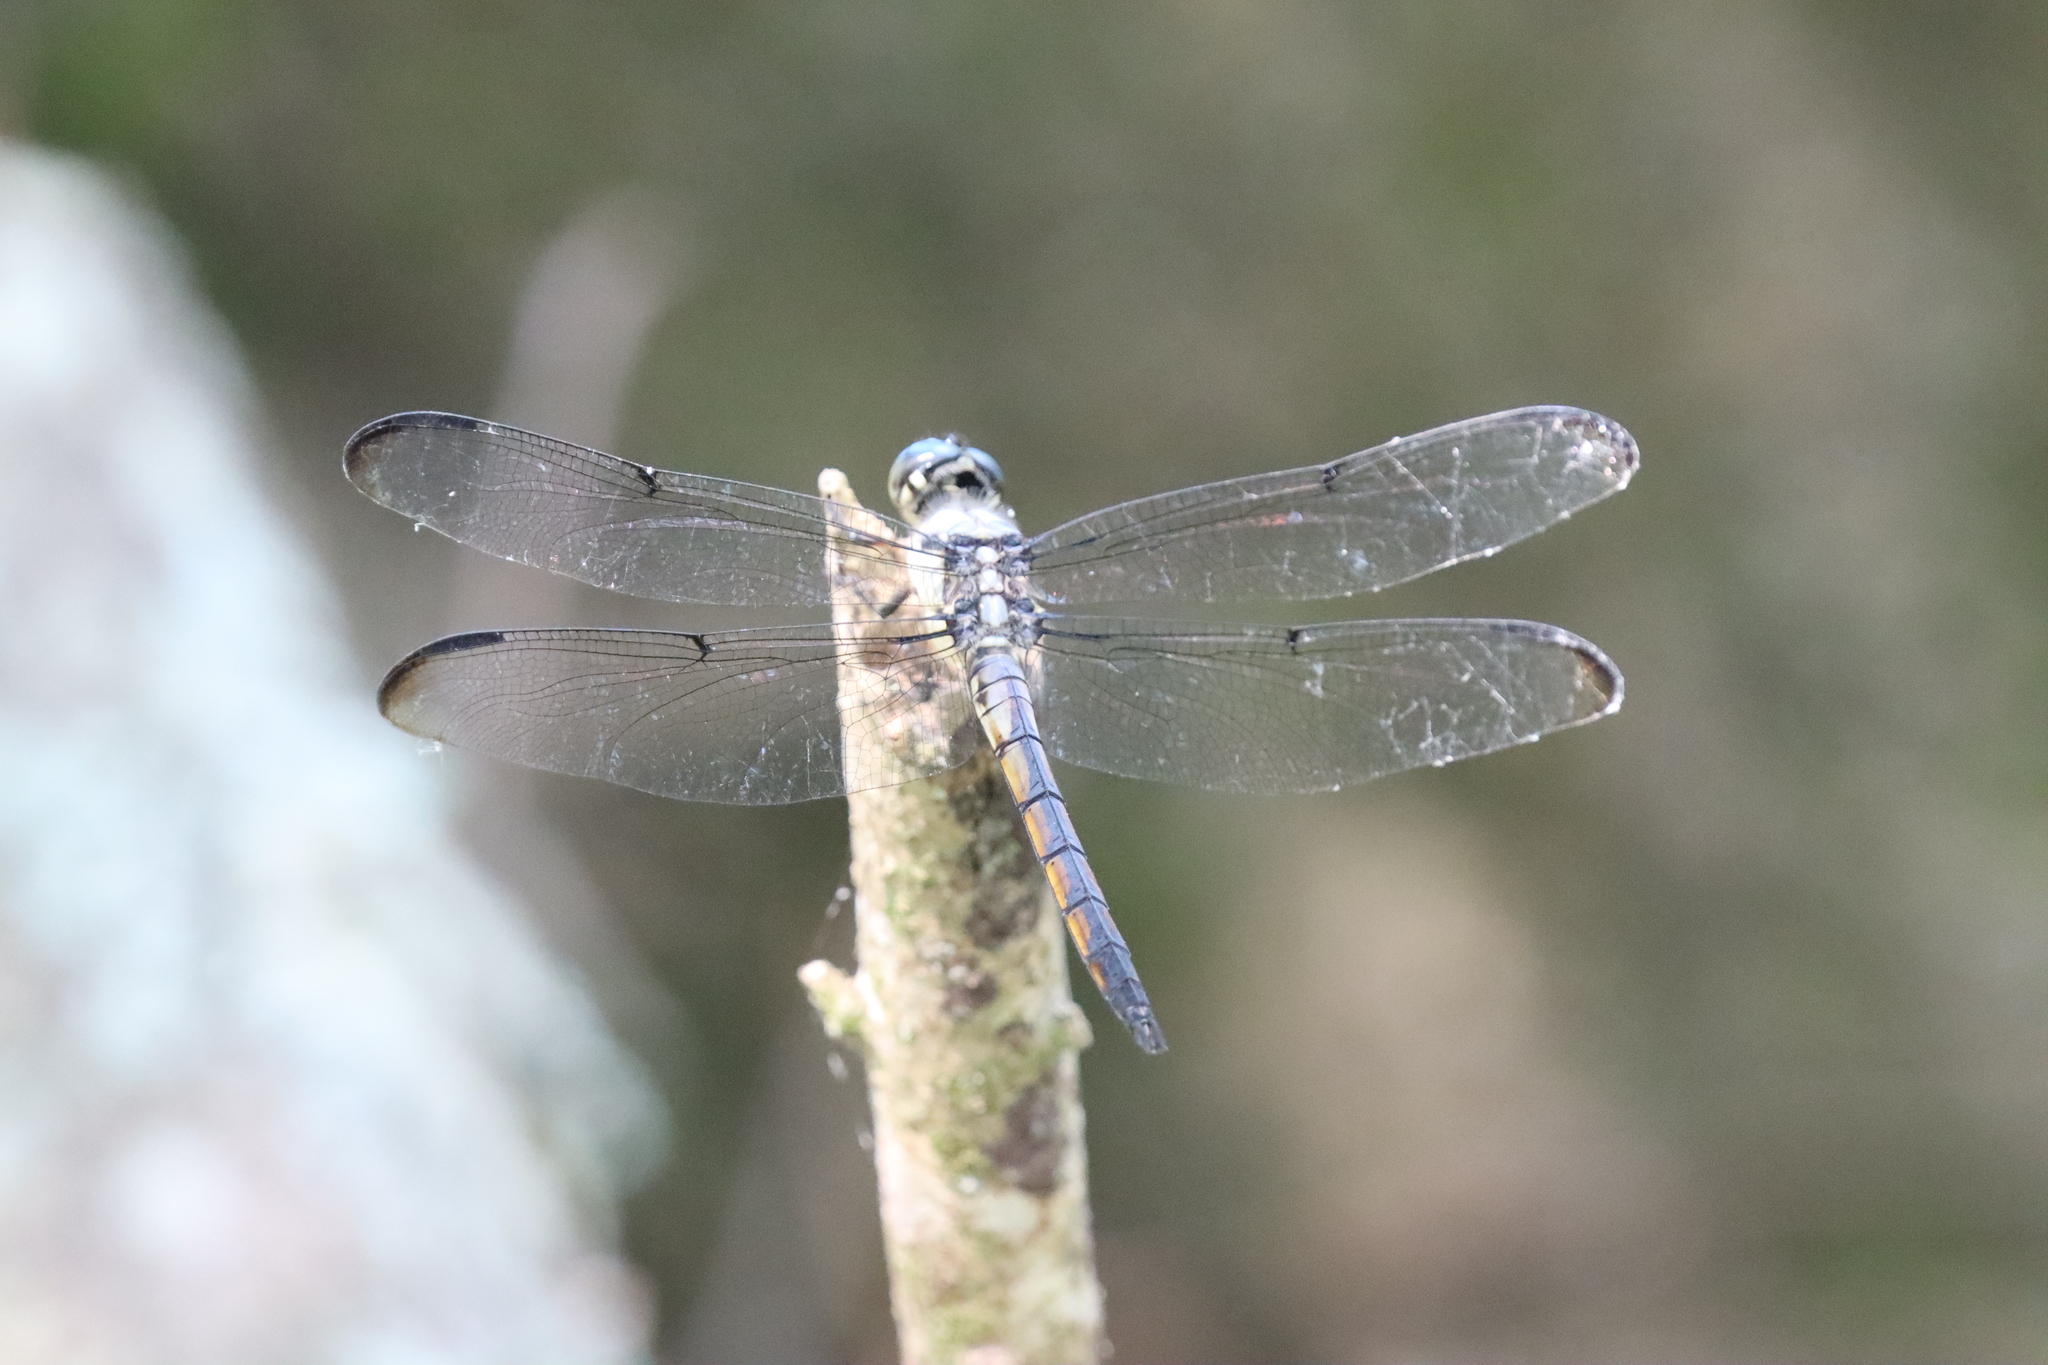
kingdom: Animalia
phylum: Arthropoda
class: Insecta
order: Odonata
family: Libellulidae
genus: Libellula
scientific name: Libellula vibrans
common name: Great blue skimmer
